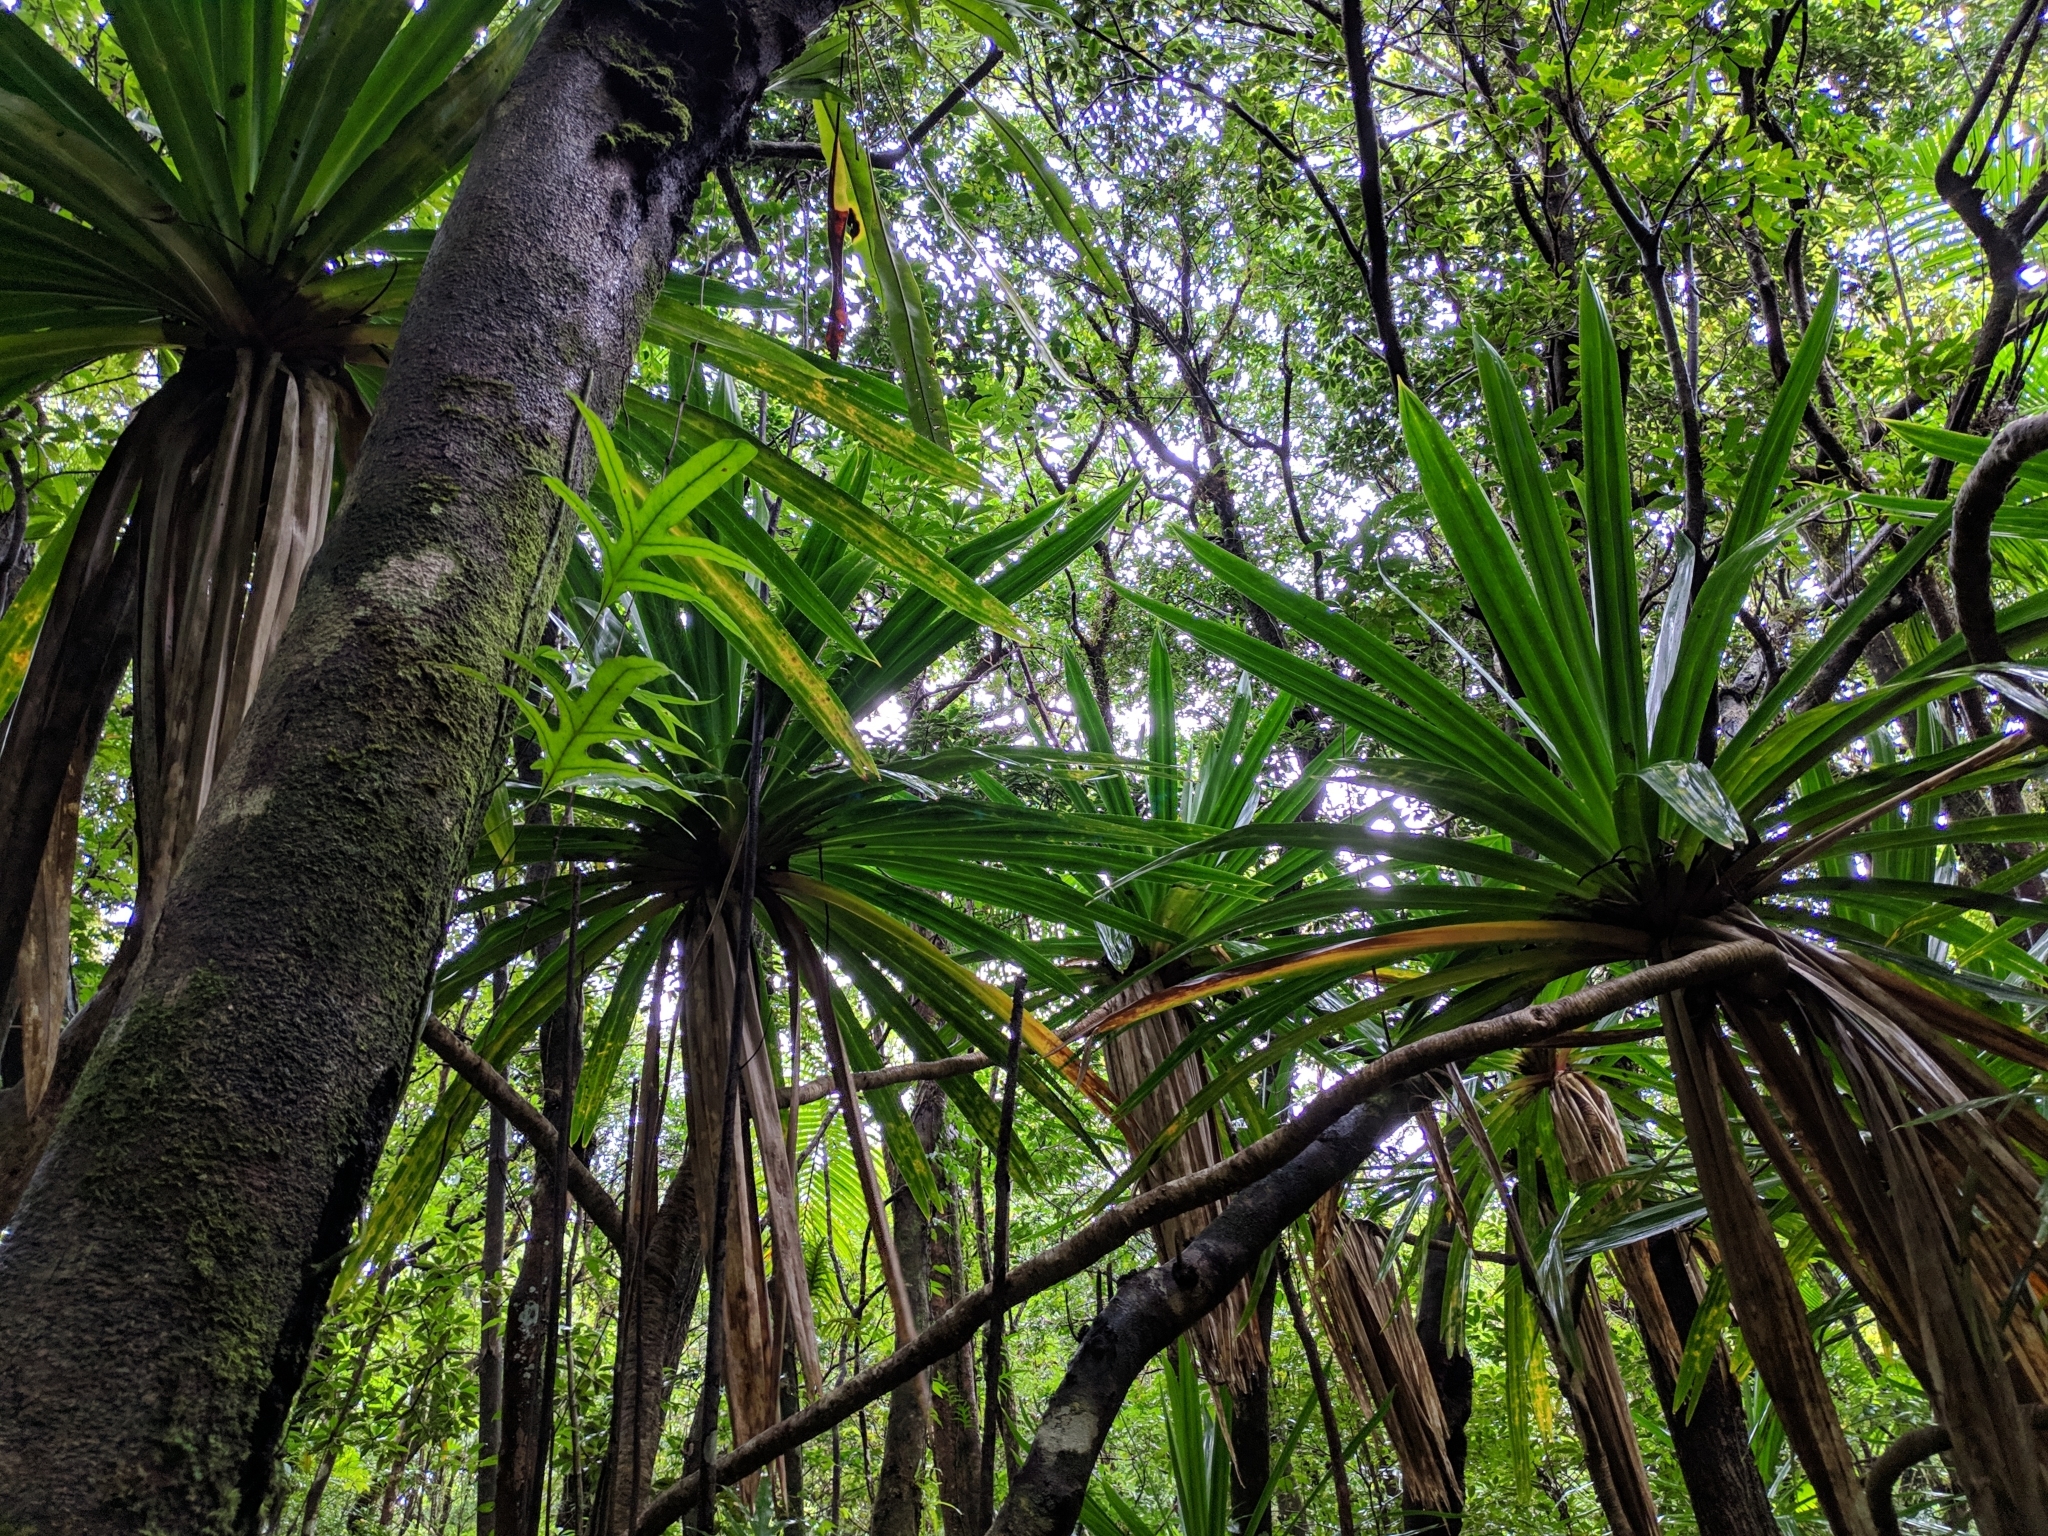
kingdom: Plantae
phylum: Tracheophyta
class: Liliopsida
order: Pandanales
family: Pandanaceae
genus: Pandanus
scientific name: Pandanus purpurascens
